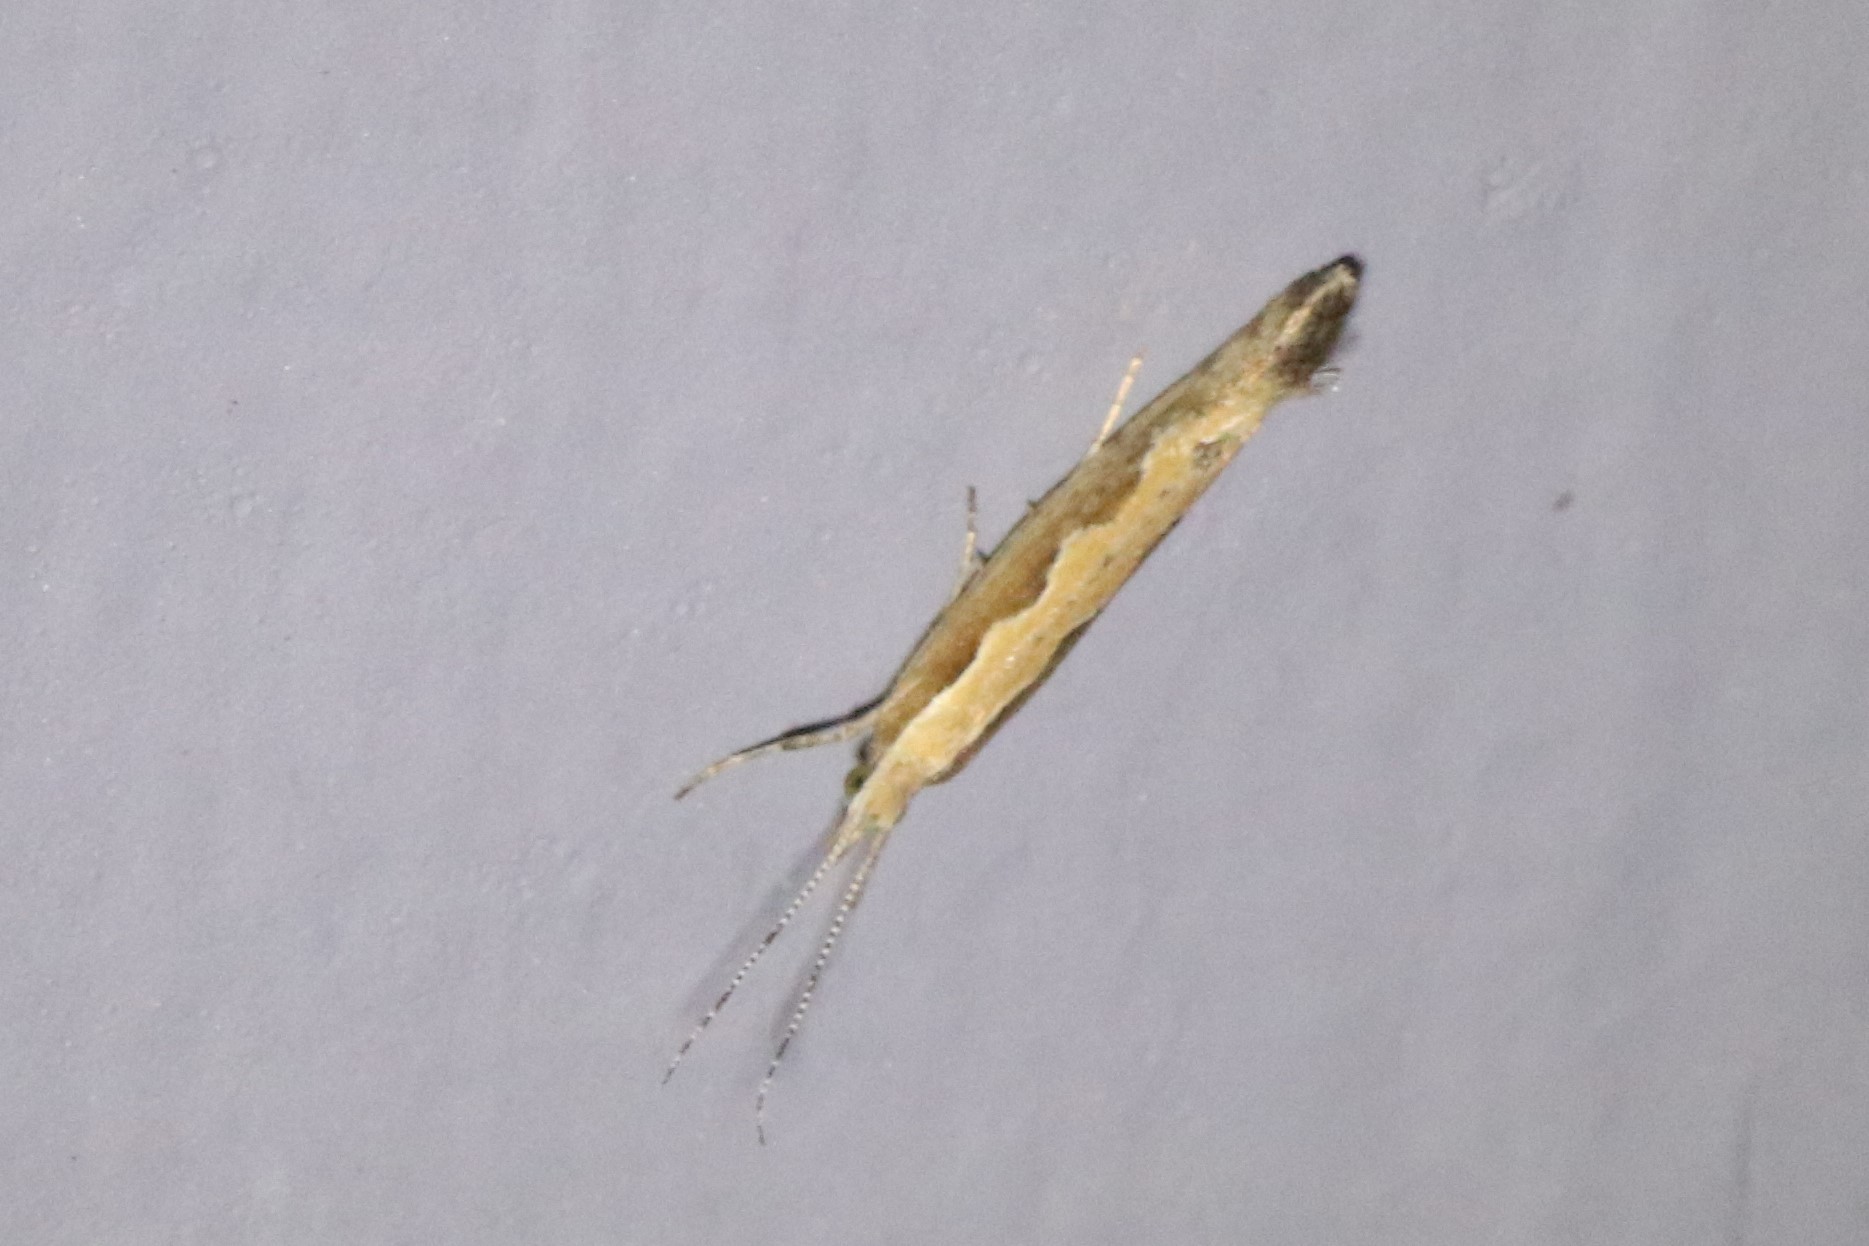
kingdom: Animalia
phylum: Arthropoda
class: Insecta
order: Lepidoptera
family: Plutellidae
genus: Plutella
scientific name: Plutella xylostella
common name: Diamond-back moth
